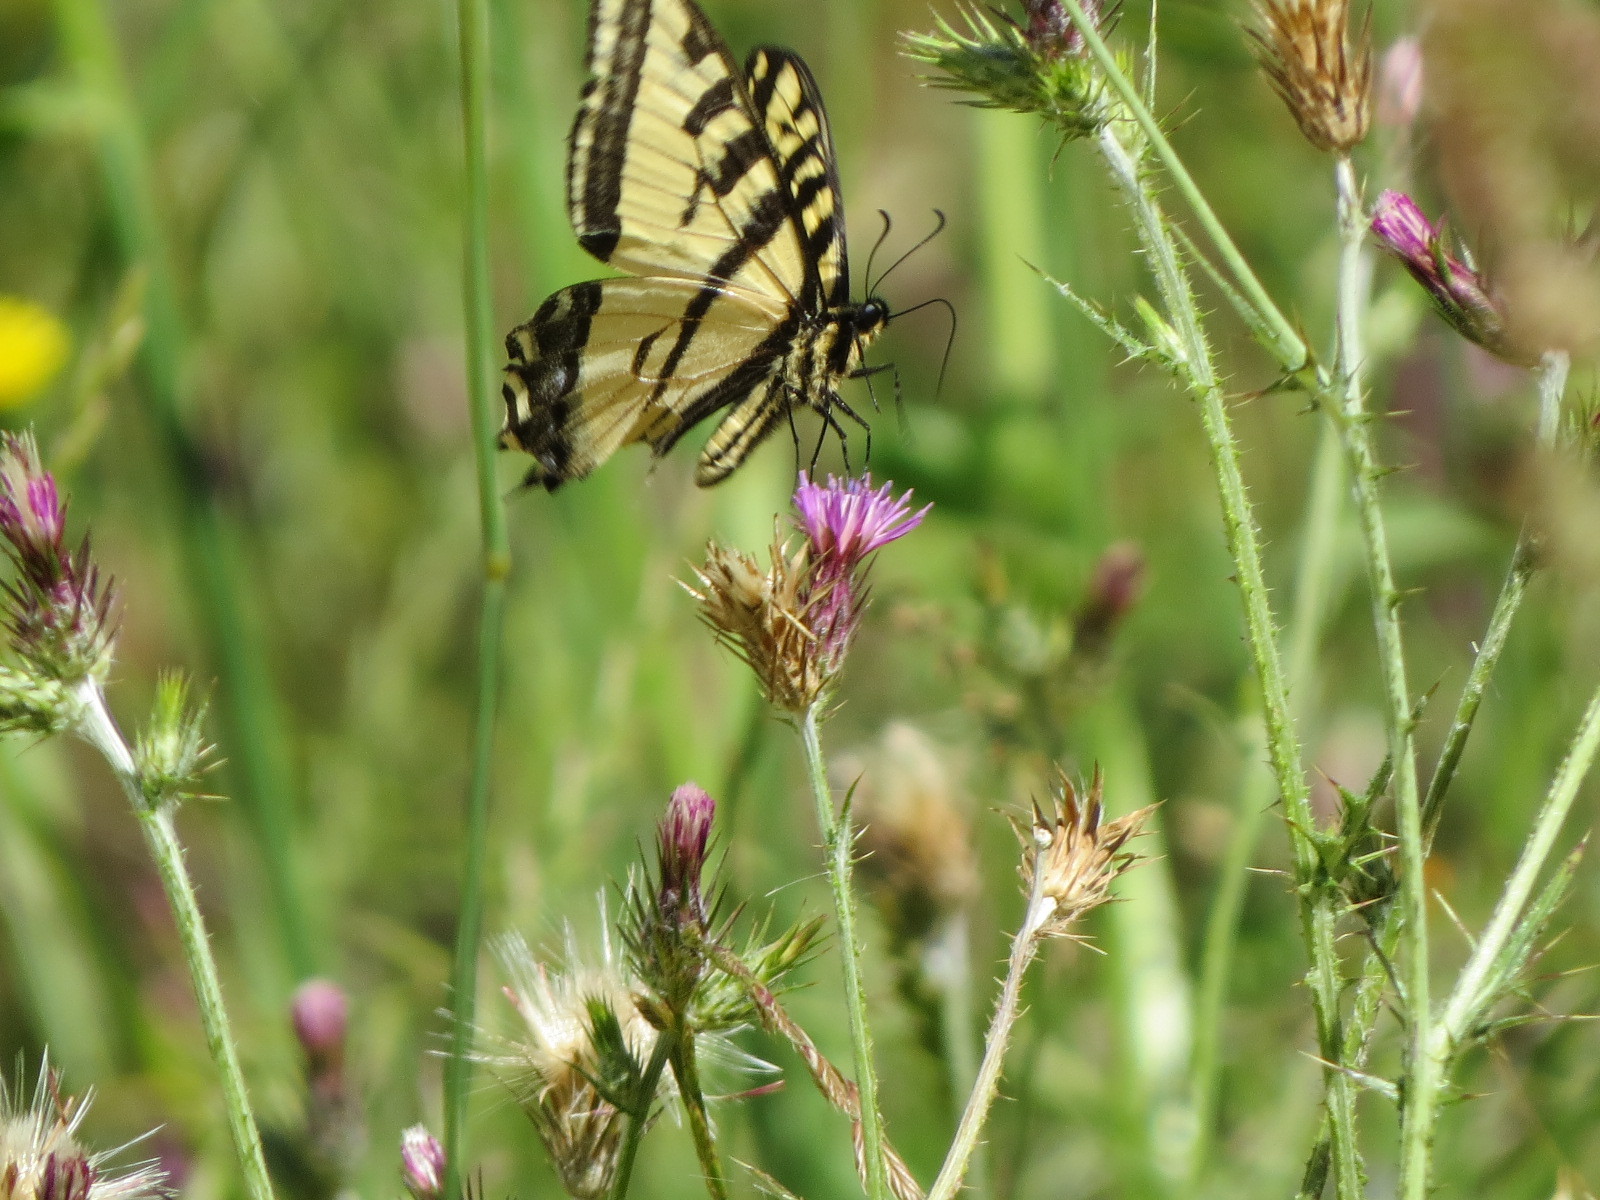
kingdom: Animalia
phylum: Arthropoda
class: Insecta
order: Lepidoptera
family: Papilionidae
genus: Papilio
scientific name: Papilio rutulus
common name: Western tiger swallowtail
